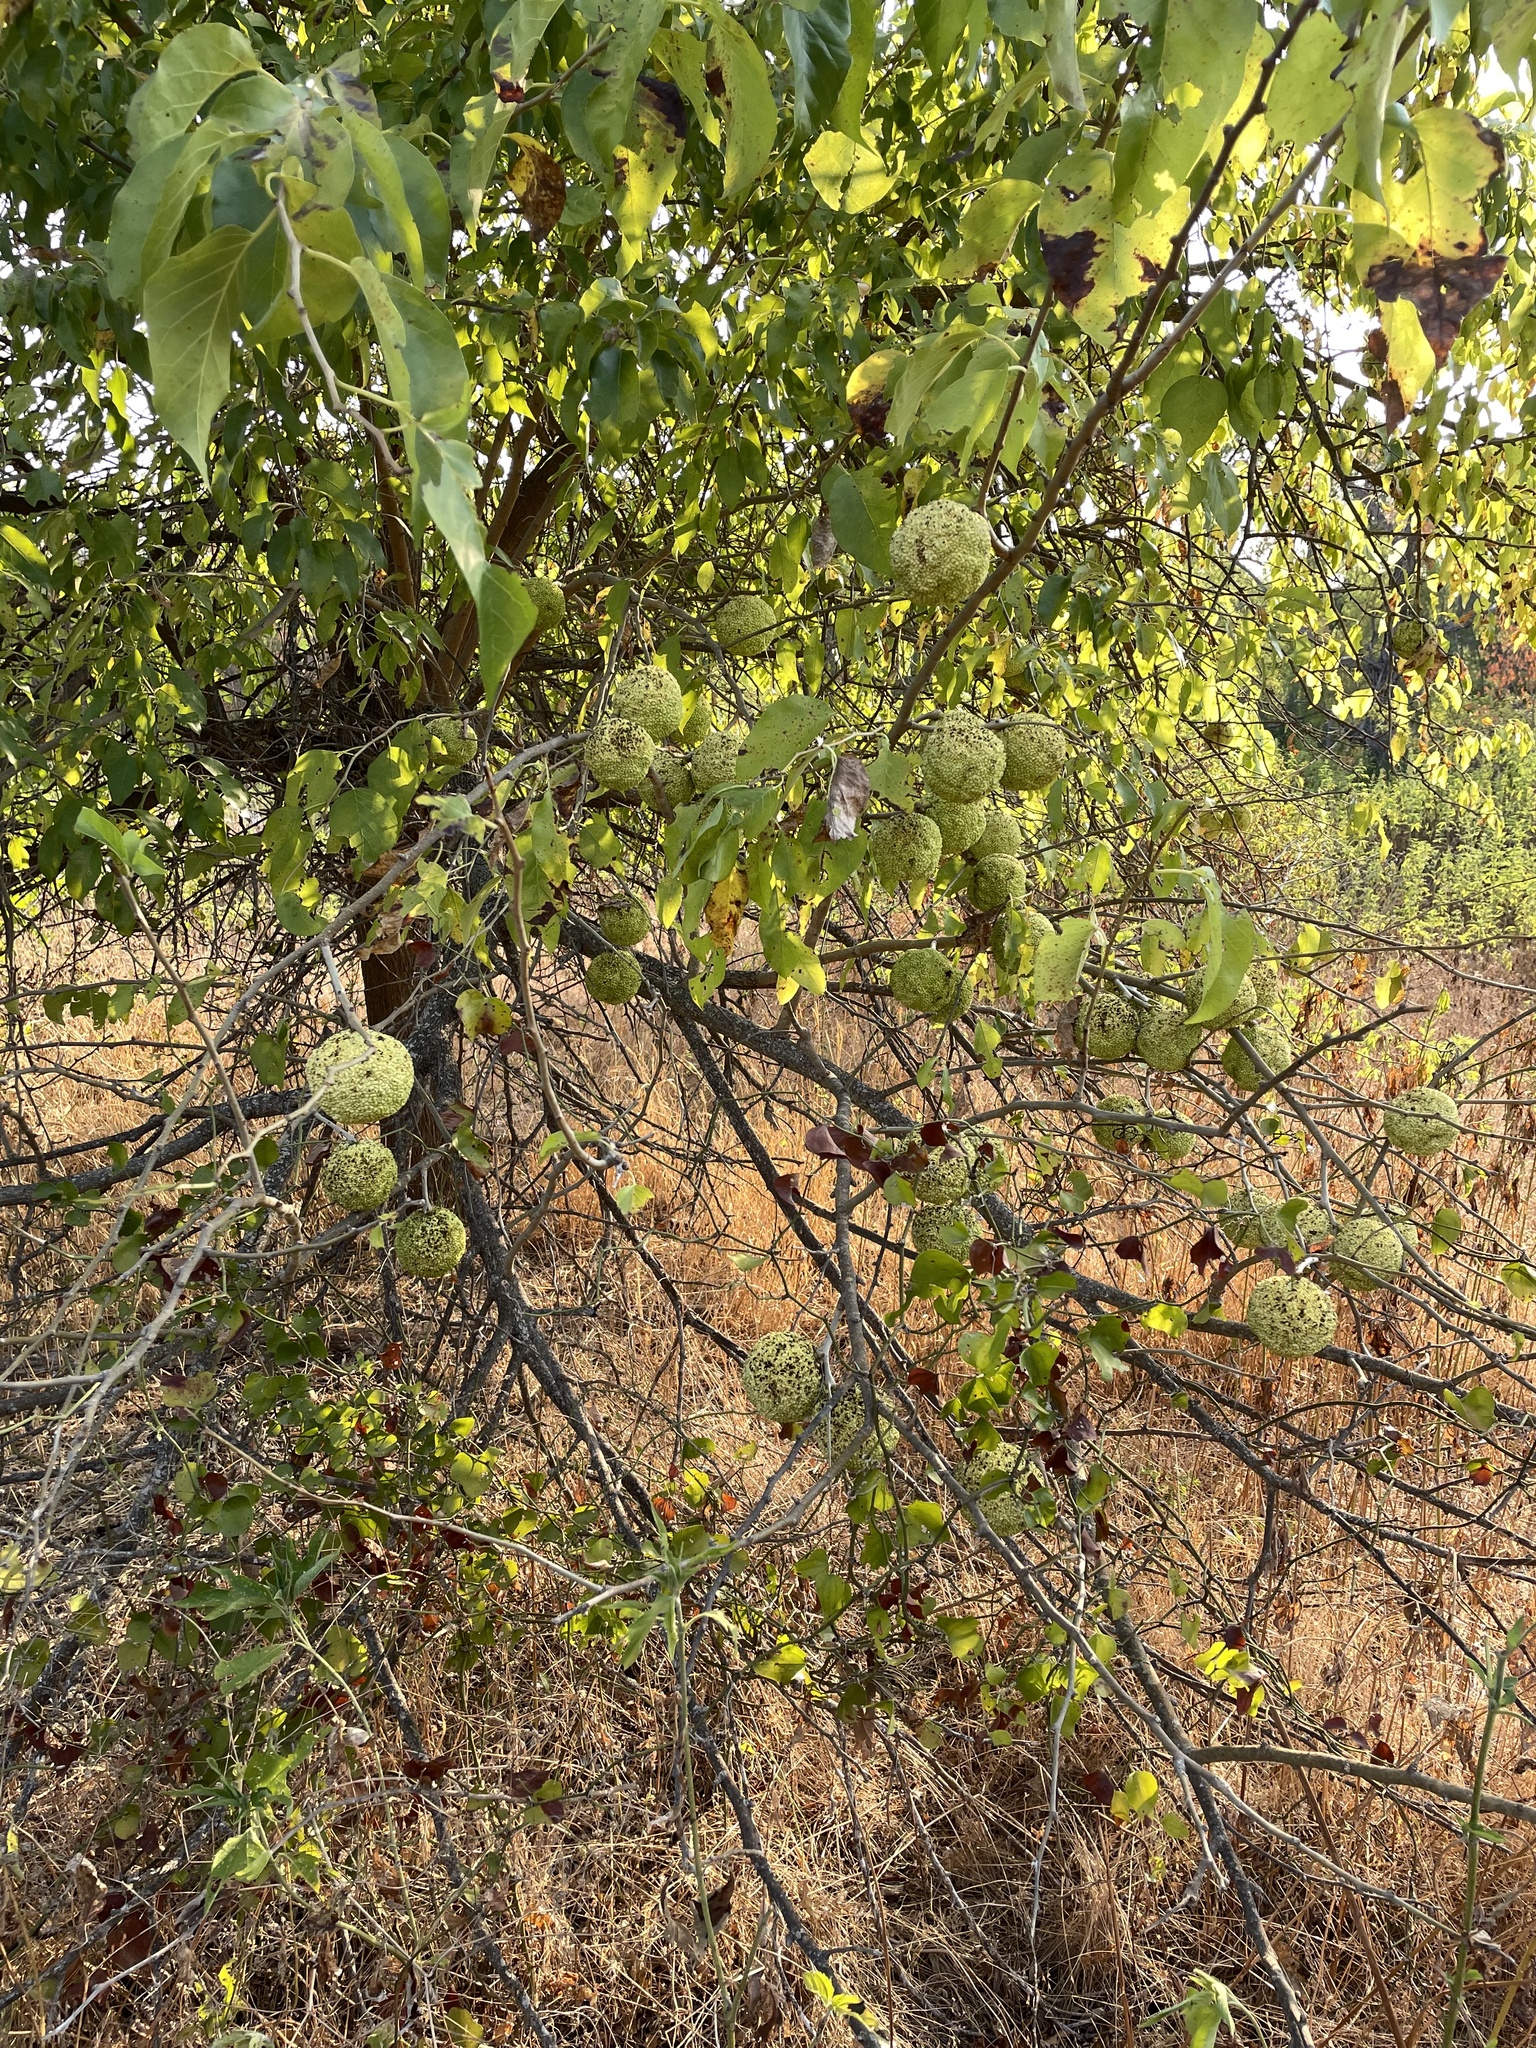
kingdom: Plantae
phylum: Tracheophyta
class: Magnoliopsida
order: Rosales
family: Moraceae
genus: Maclura
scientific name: Maclura pomifera
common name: Osage-orange
